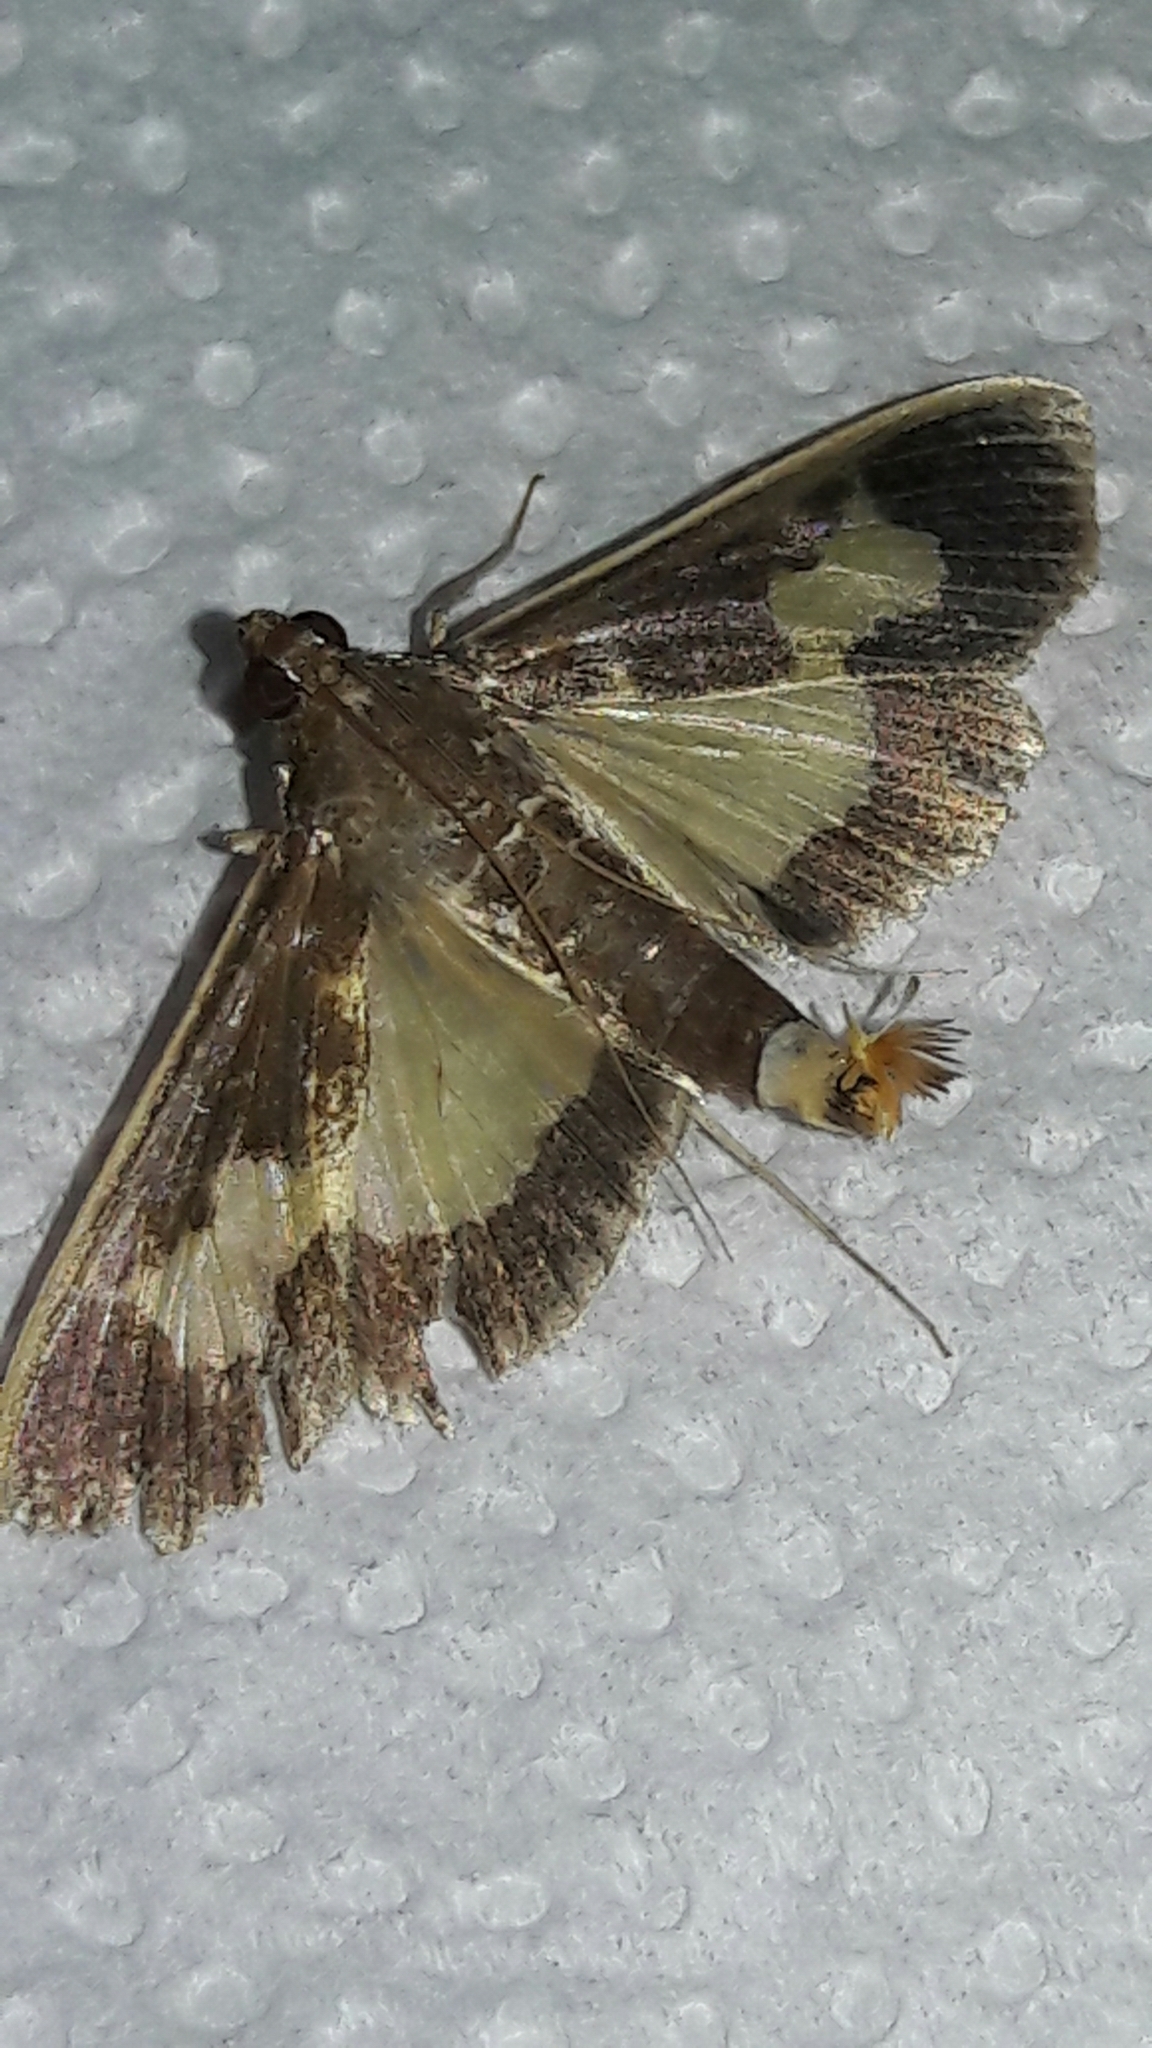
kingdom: Animalia
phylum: Arthropoda
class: Insecta
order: Lepidoptera
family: Crambidae
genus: Cryptographis
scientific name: Cryptographis nitidalis
